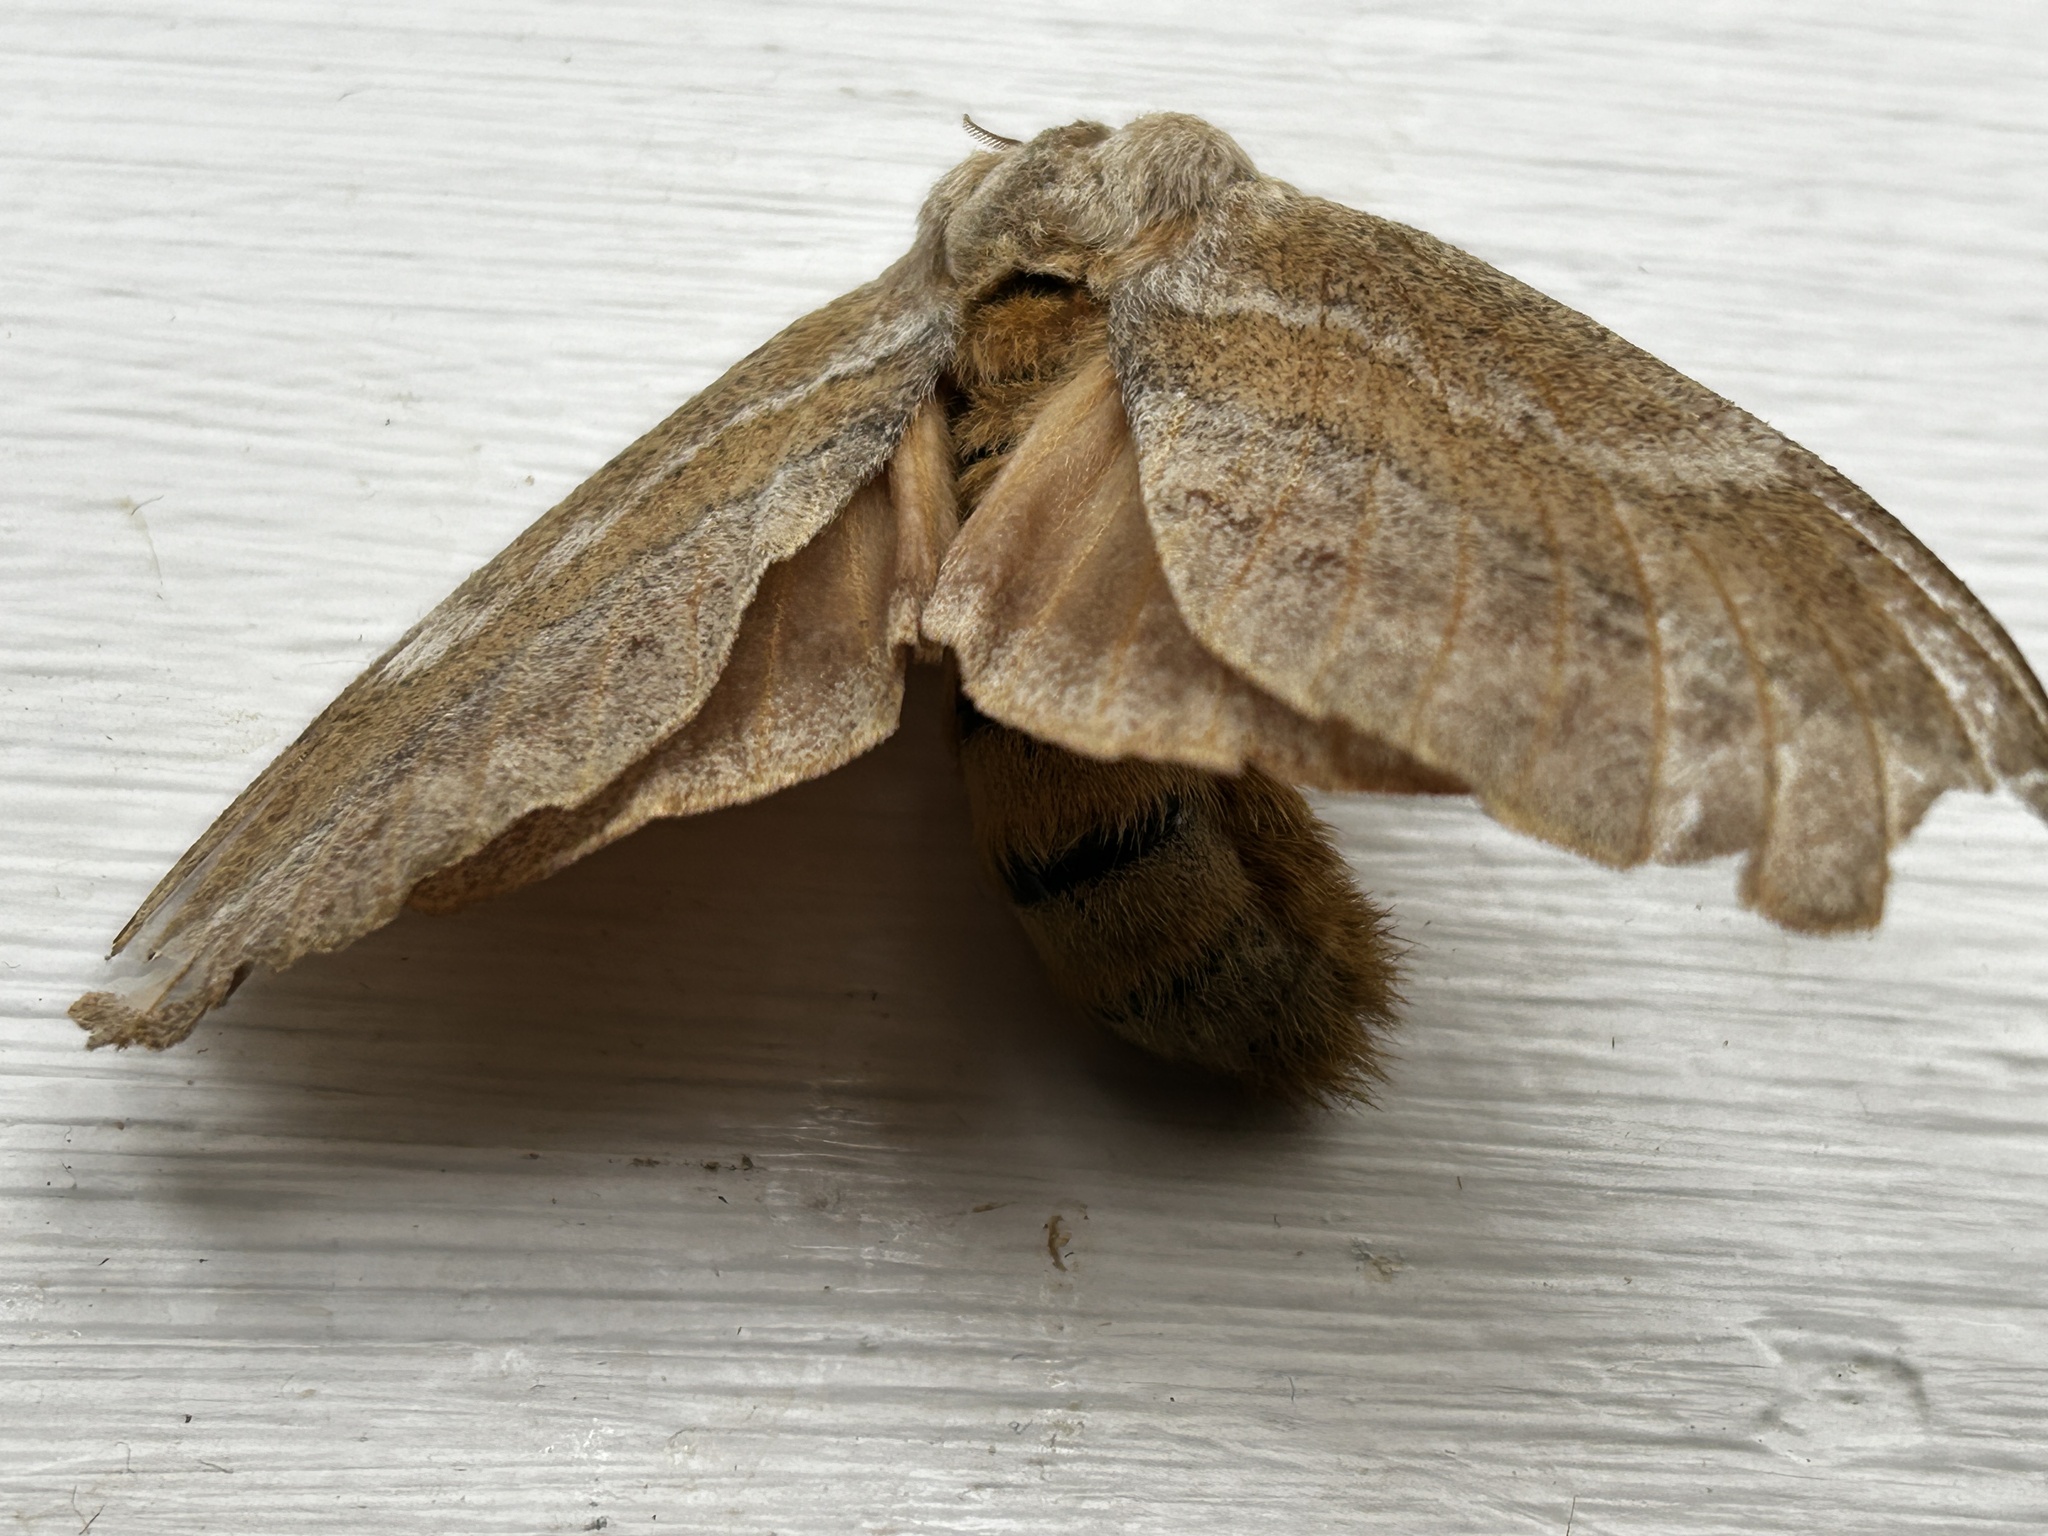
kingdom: Animalia
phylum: Arthropoda
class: Insecta
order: Lepidoptera
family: Lasiocampidae
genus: Eutricha
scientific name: Eutricha capensis
